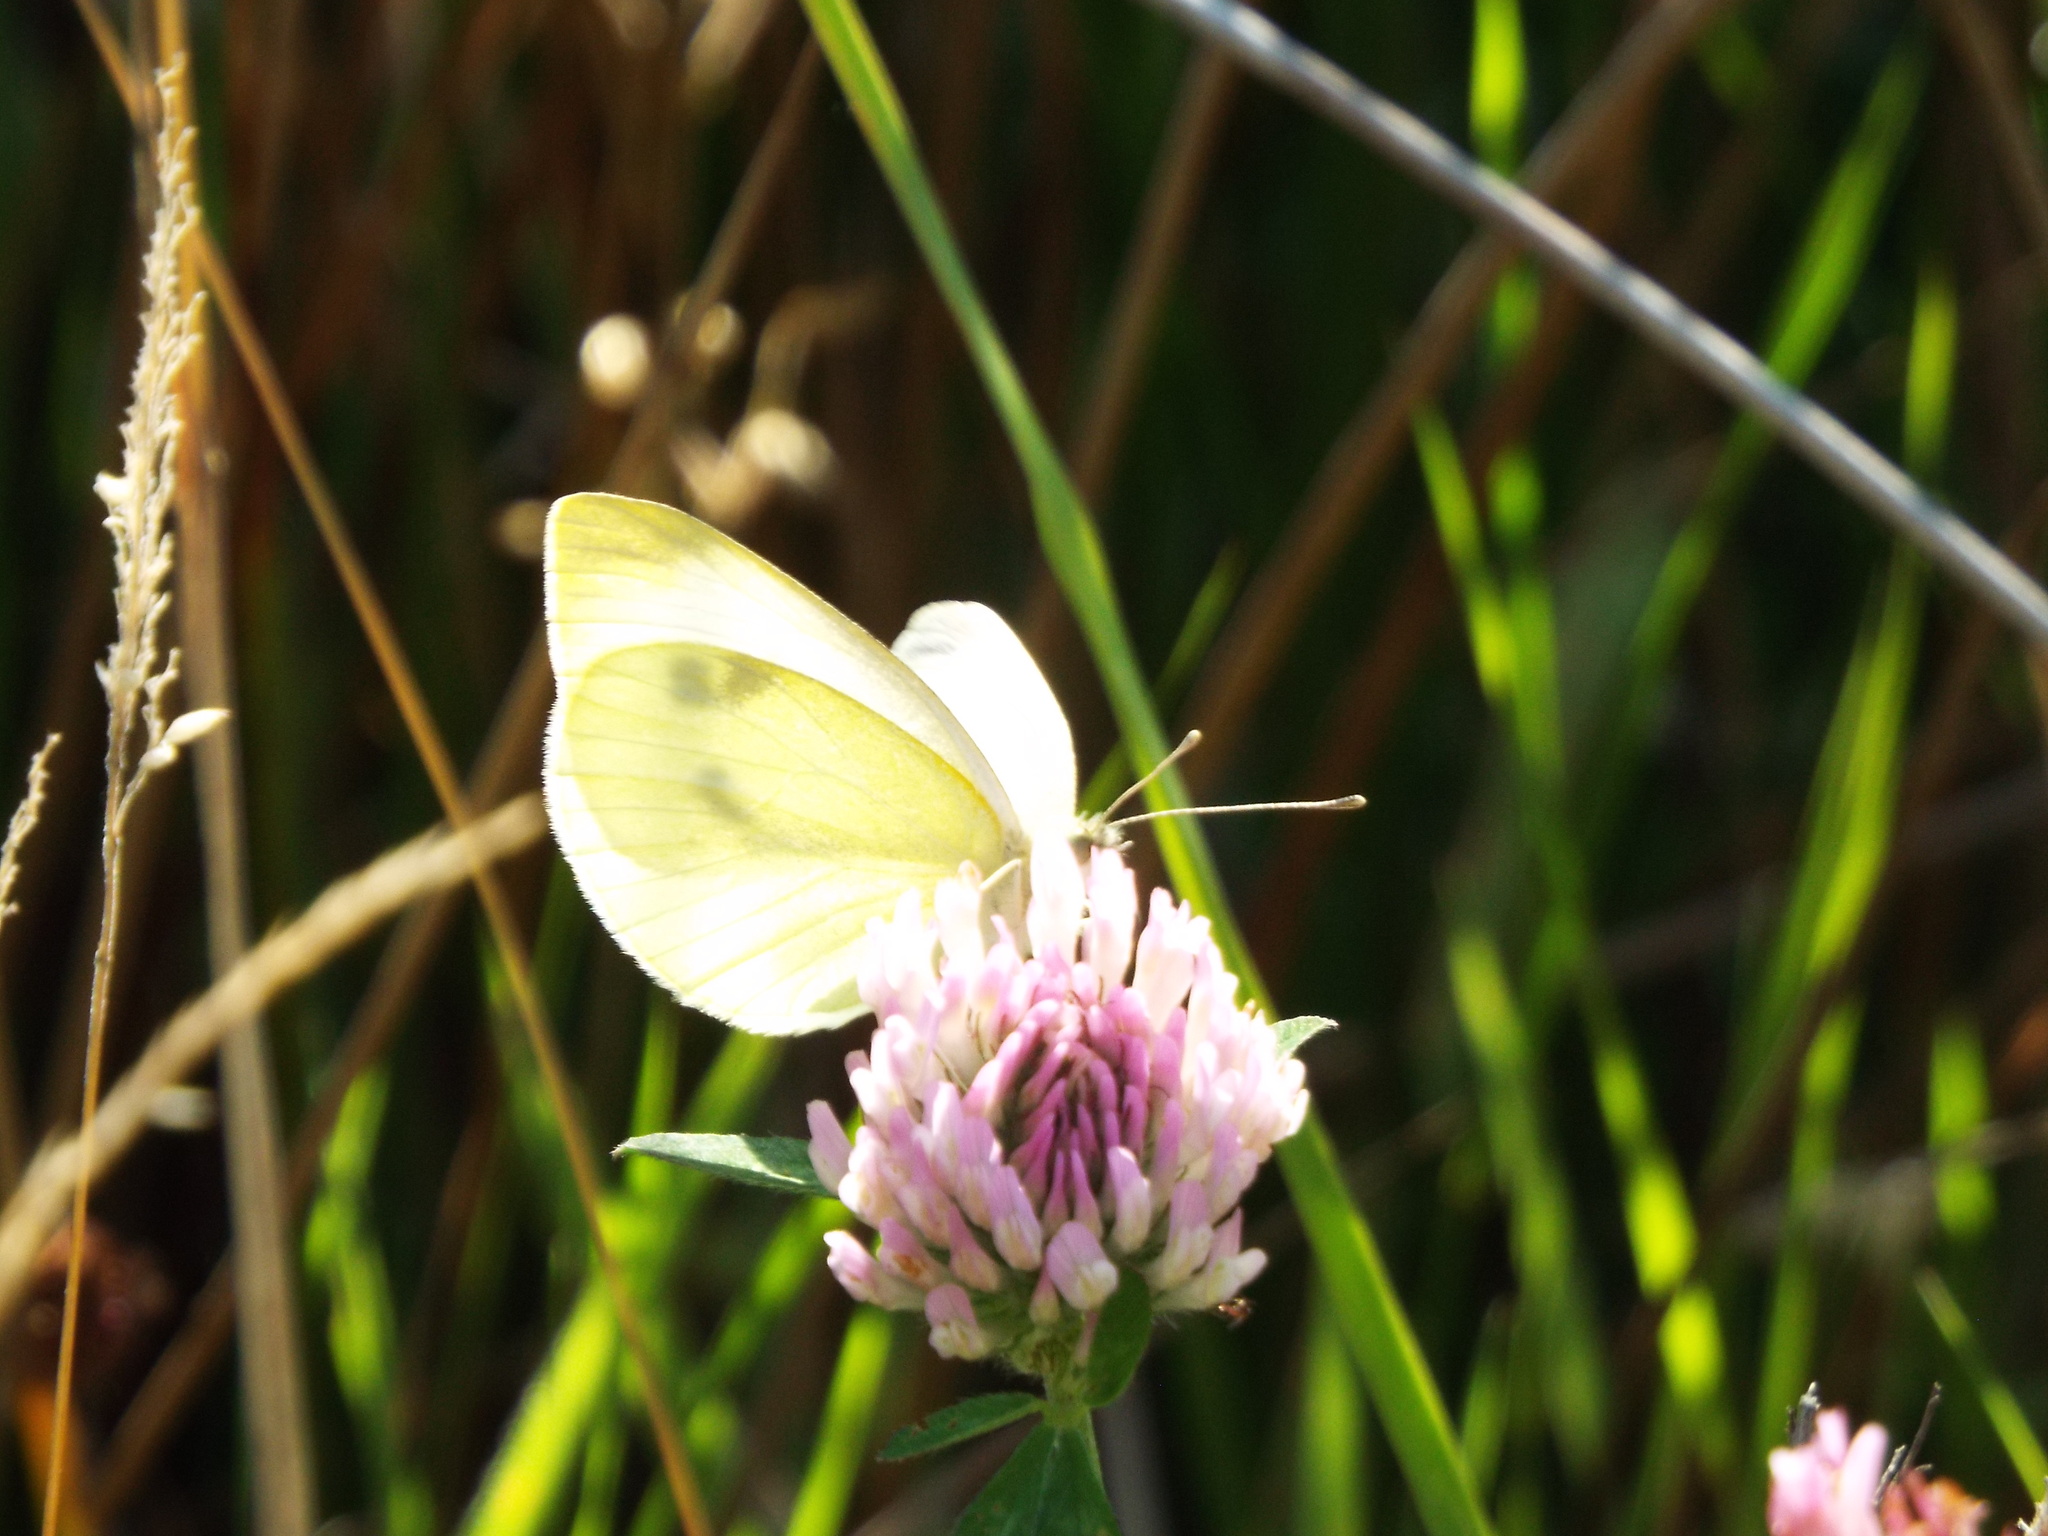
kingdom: Animalia
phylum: Arthropoda
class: Insecta
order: Lepidoptera
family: Pieridae
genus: Pieris
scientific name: Pieris rapae
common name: Small white
